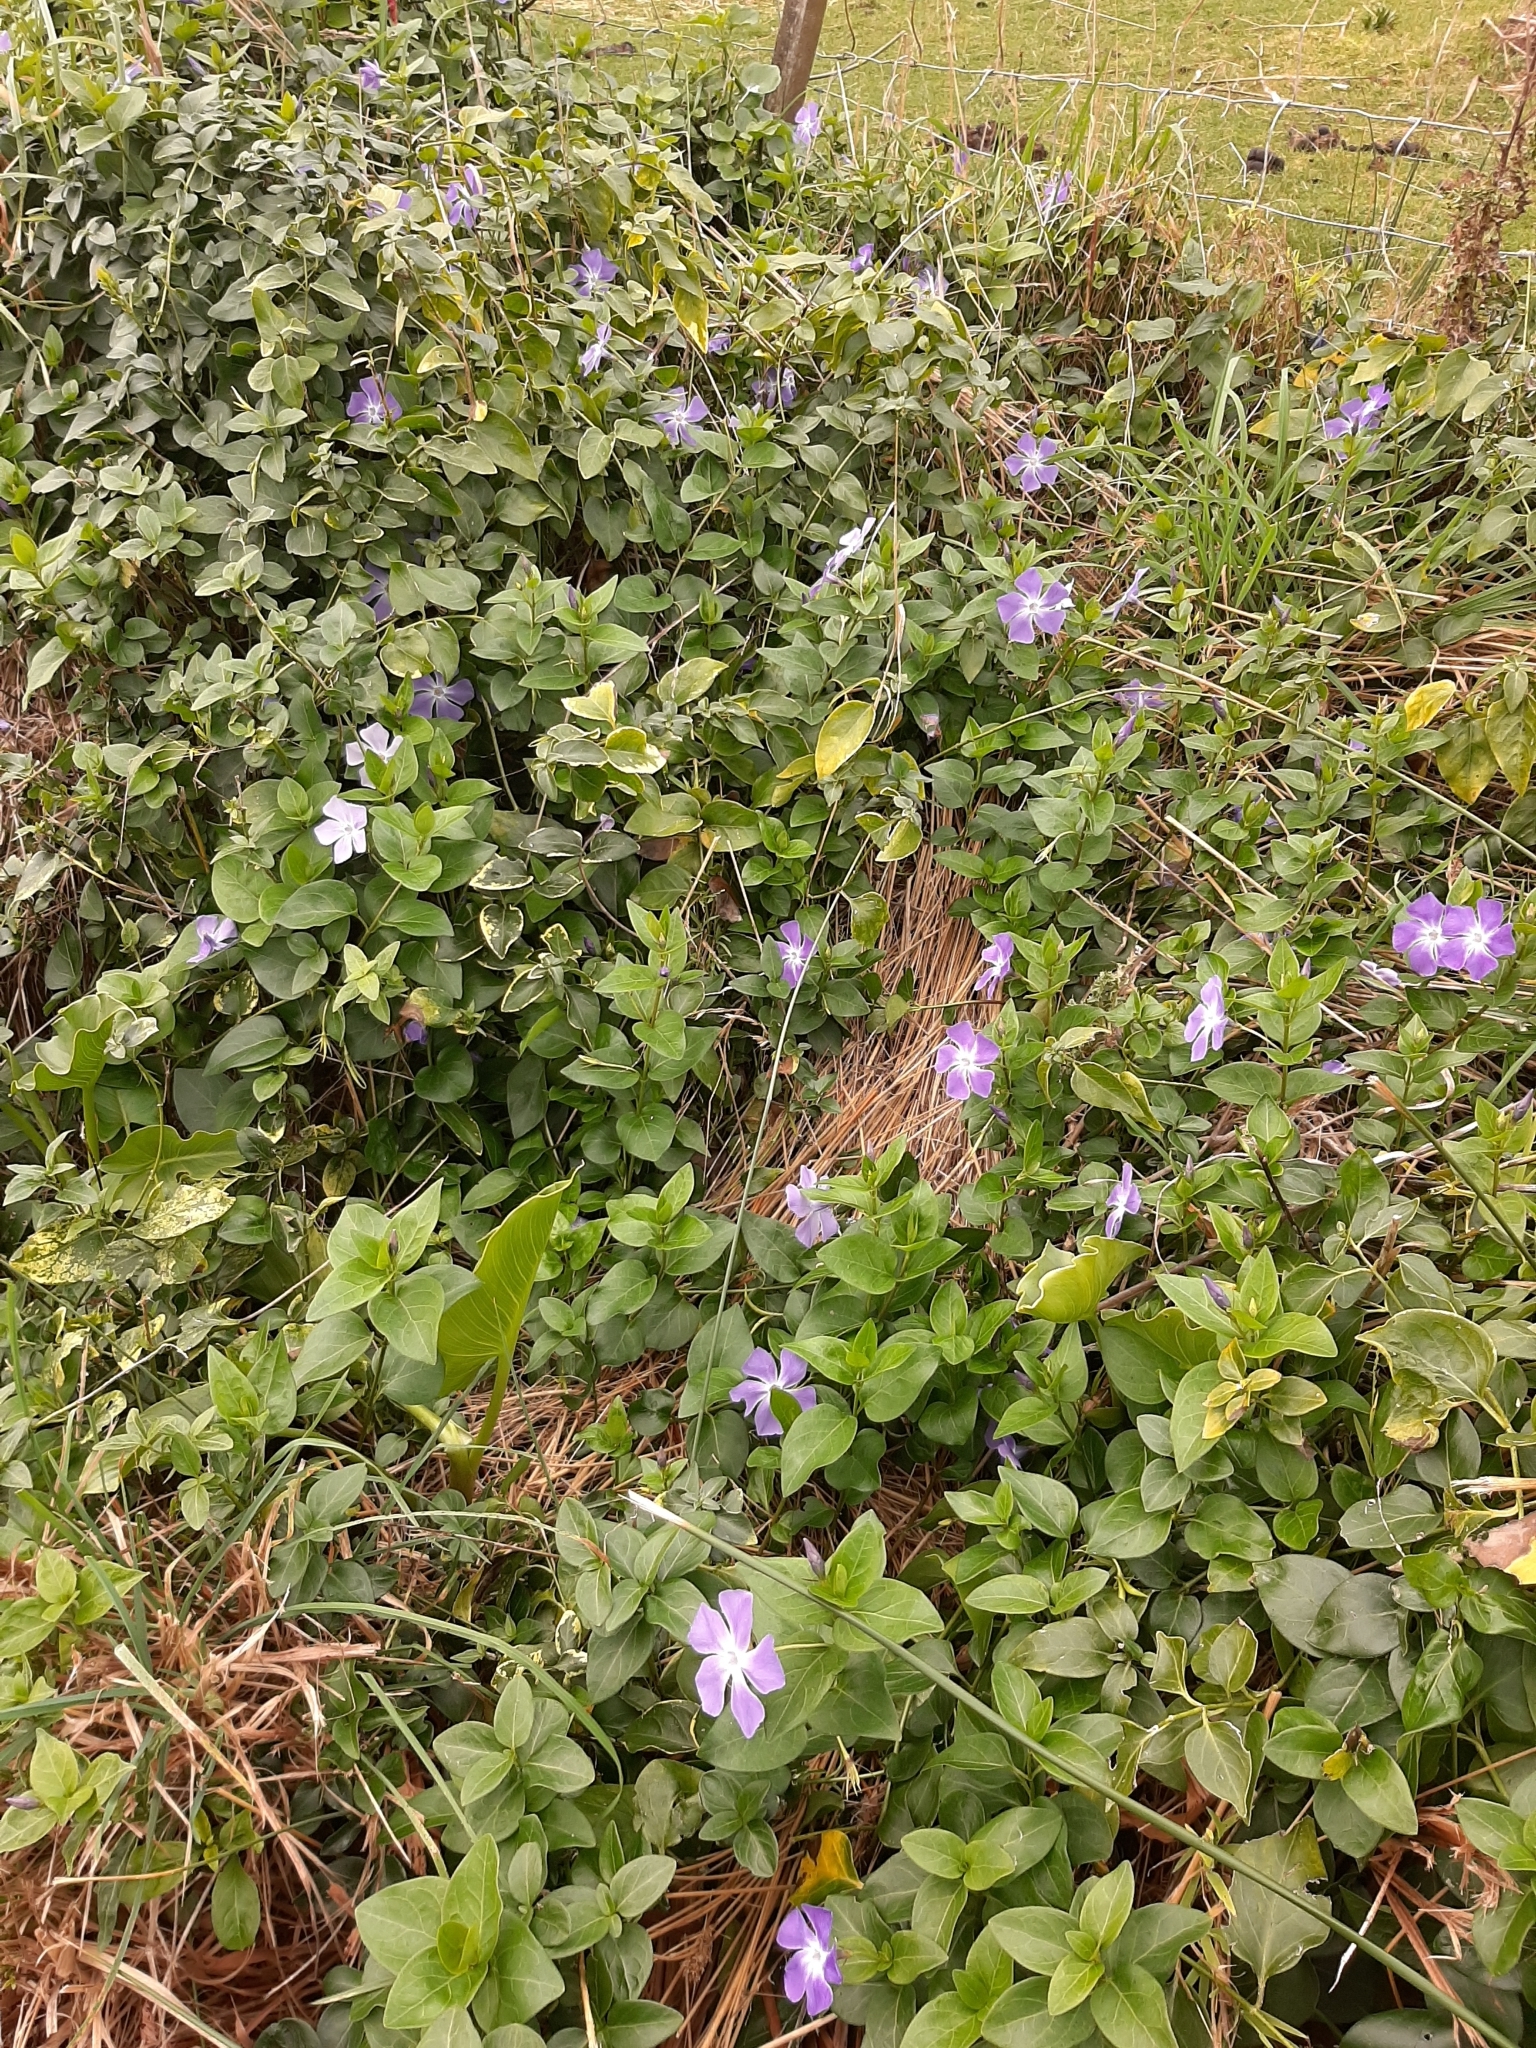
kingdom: Plantae
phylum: Tracheophyta
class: Magnoliopsida
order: Gentianales
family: Apocynaceae
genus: Vinca
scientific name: Vinca major
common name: Greater periwinkle
